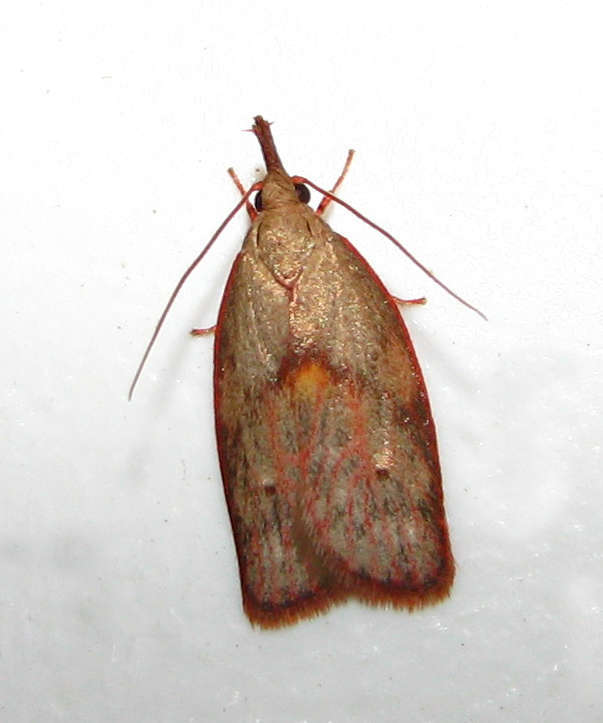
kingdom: Animalia
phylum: Arthropoda
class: Insecta
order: Lepidoptera
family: Depressariidae
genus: Enchocrates
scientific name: Enchocrates glaucopis
